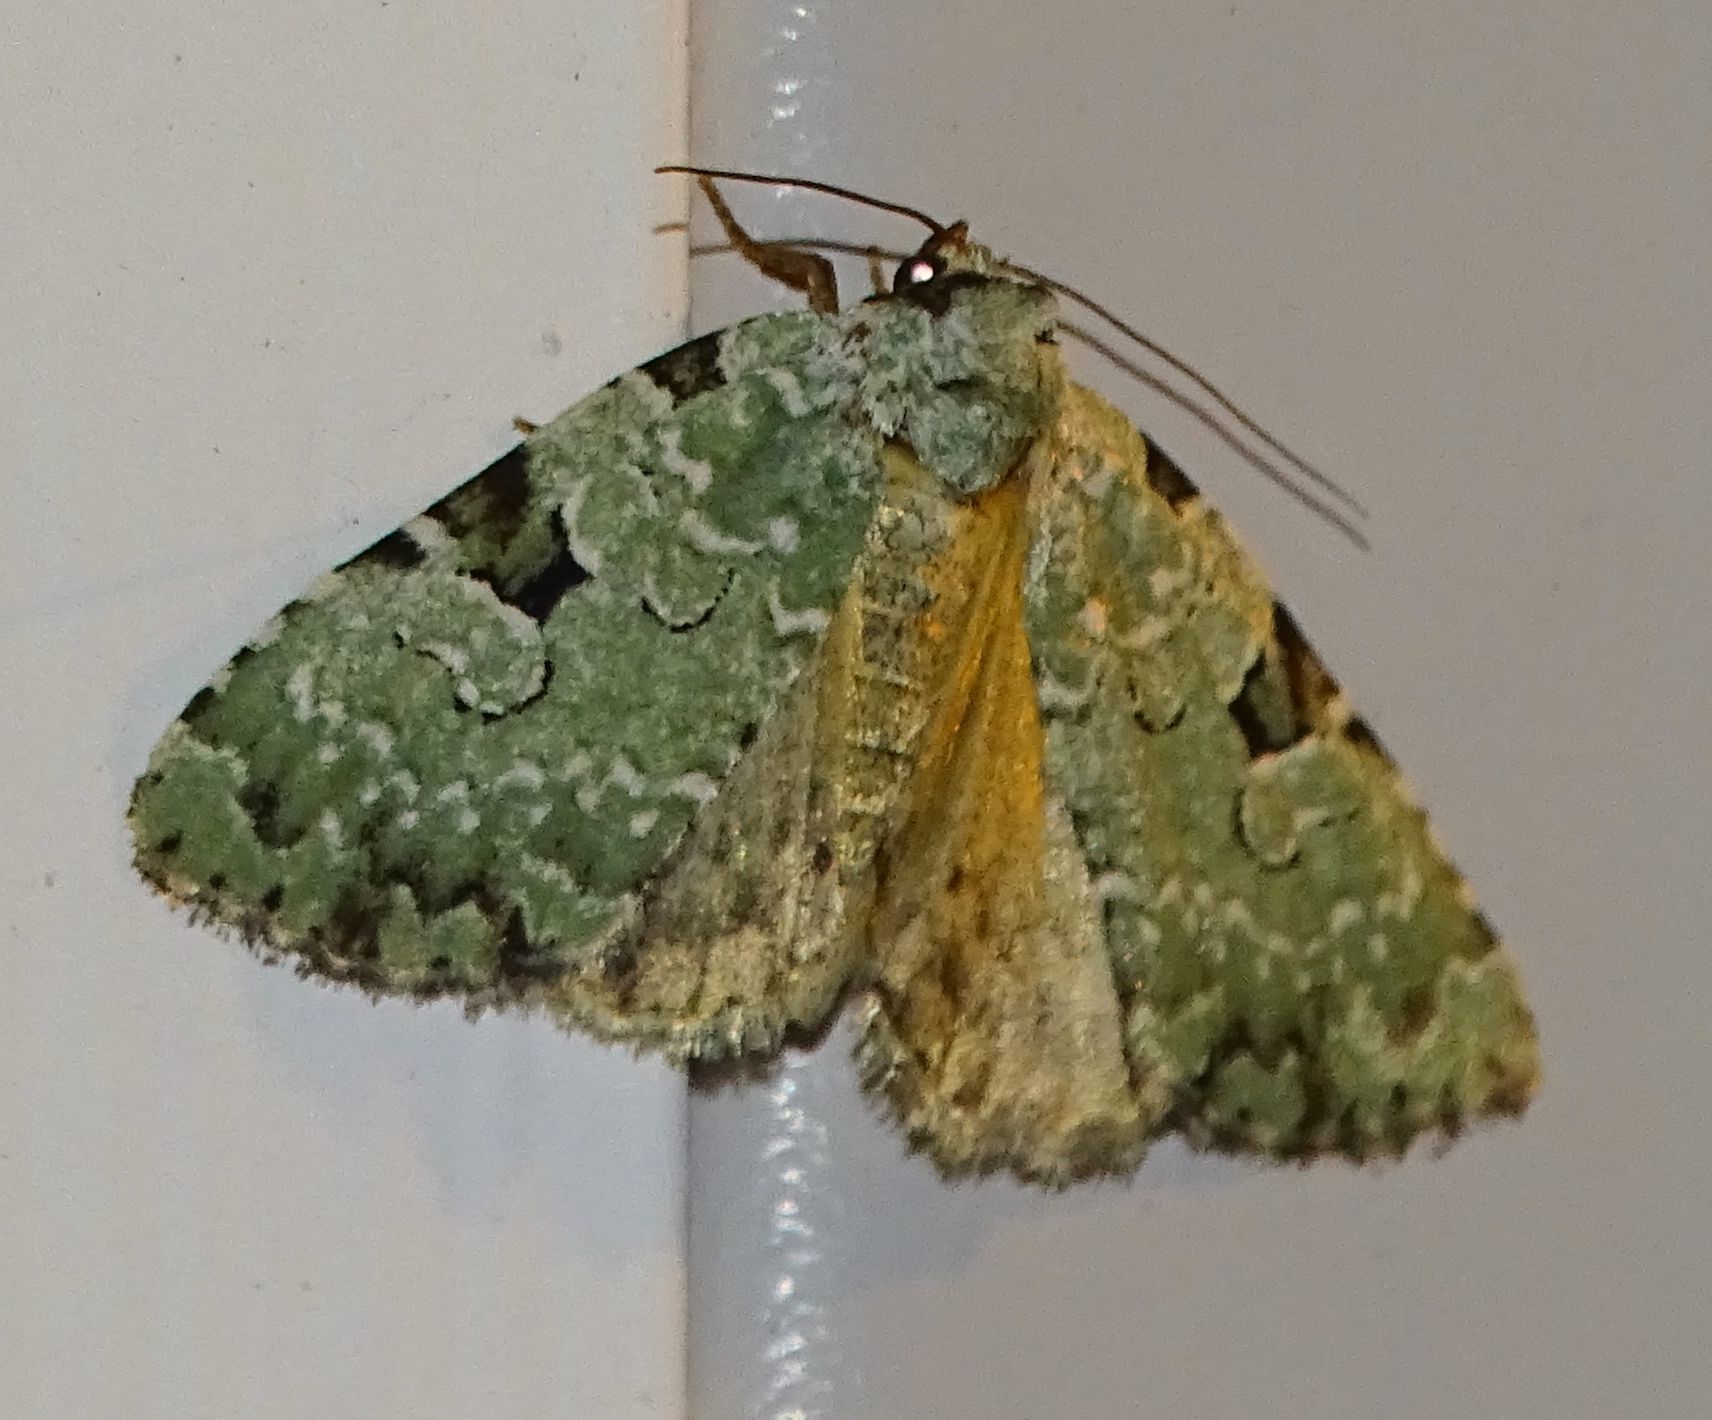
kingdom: Animalia
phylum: Arthropoda
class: Insecta
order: Lepidoptera
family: Noctuidae
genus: Leuconycta
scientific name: Leuconycta diphteroides
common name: Green leuconycta moth
